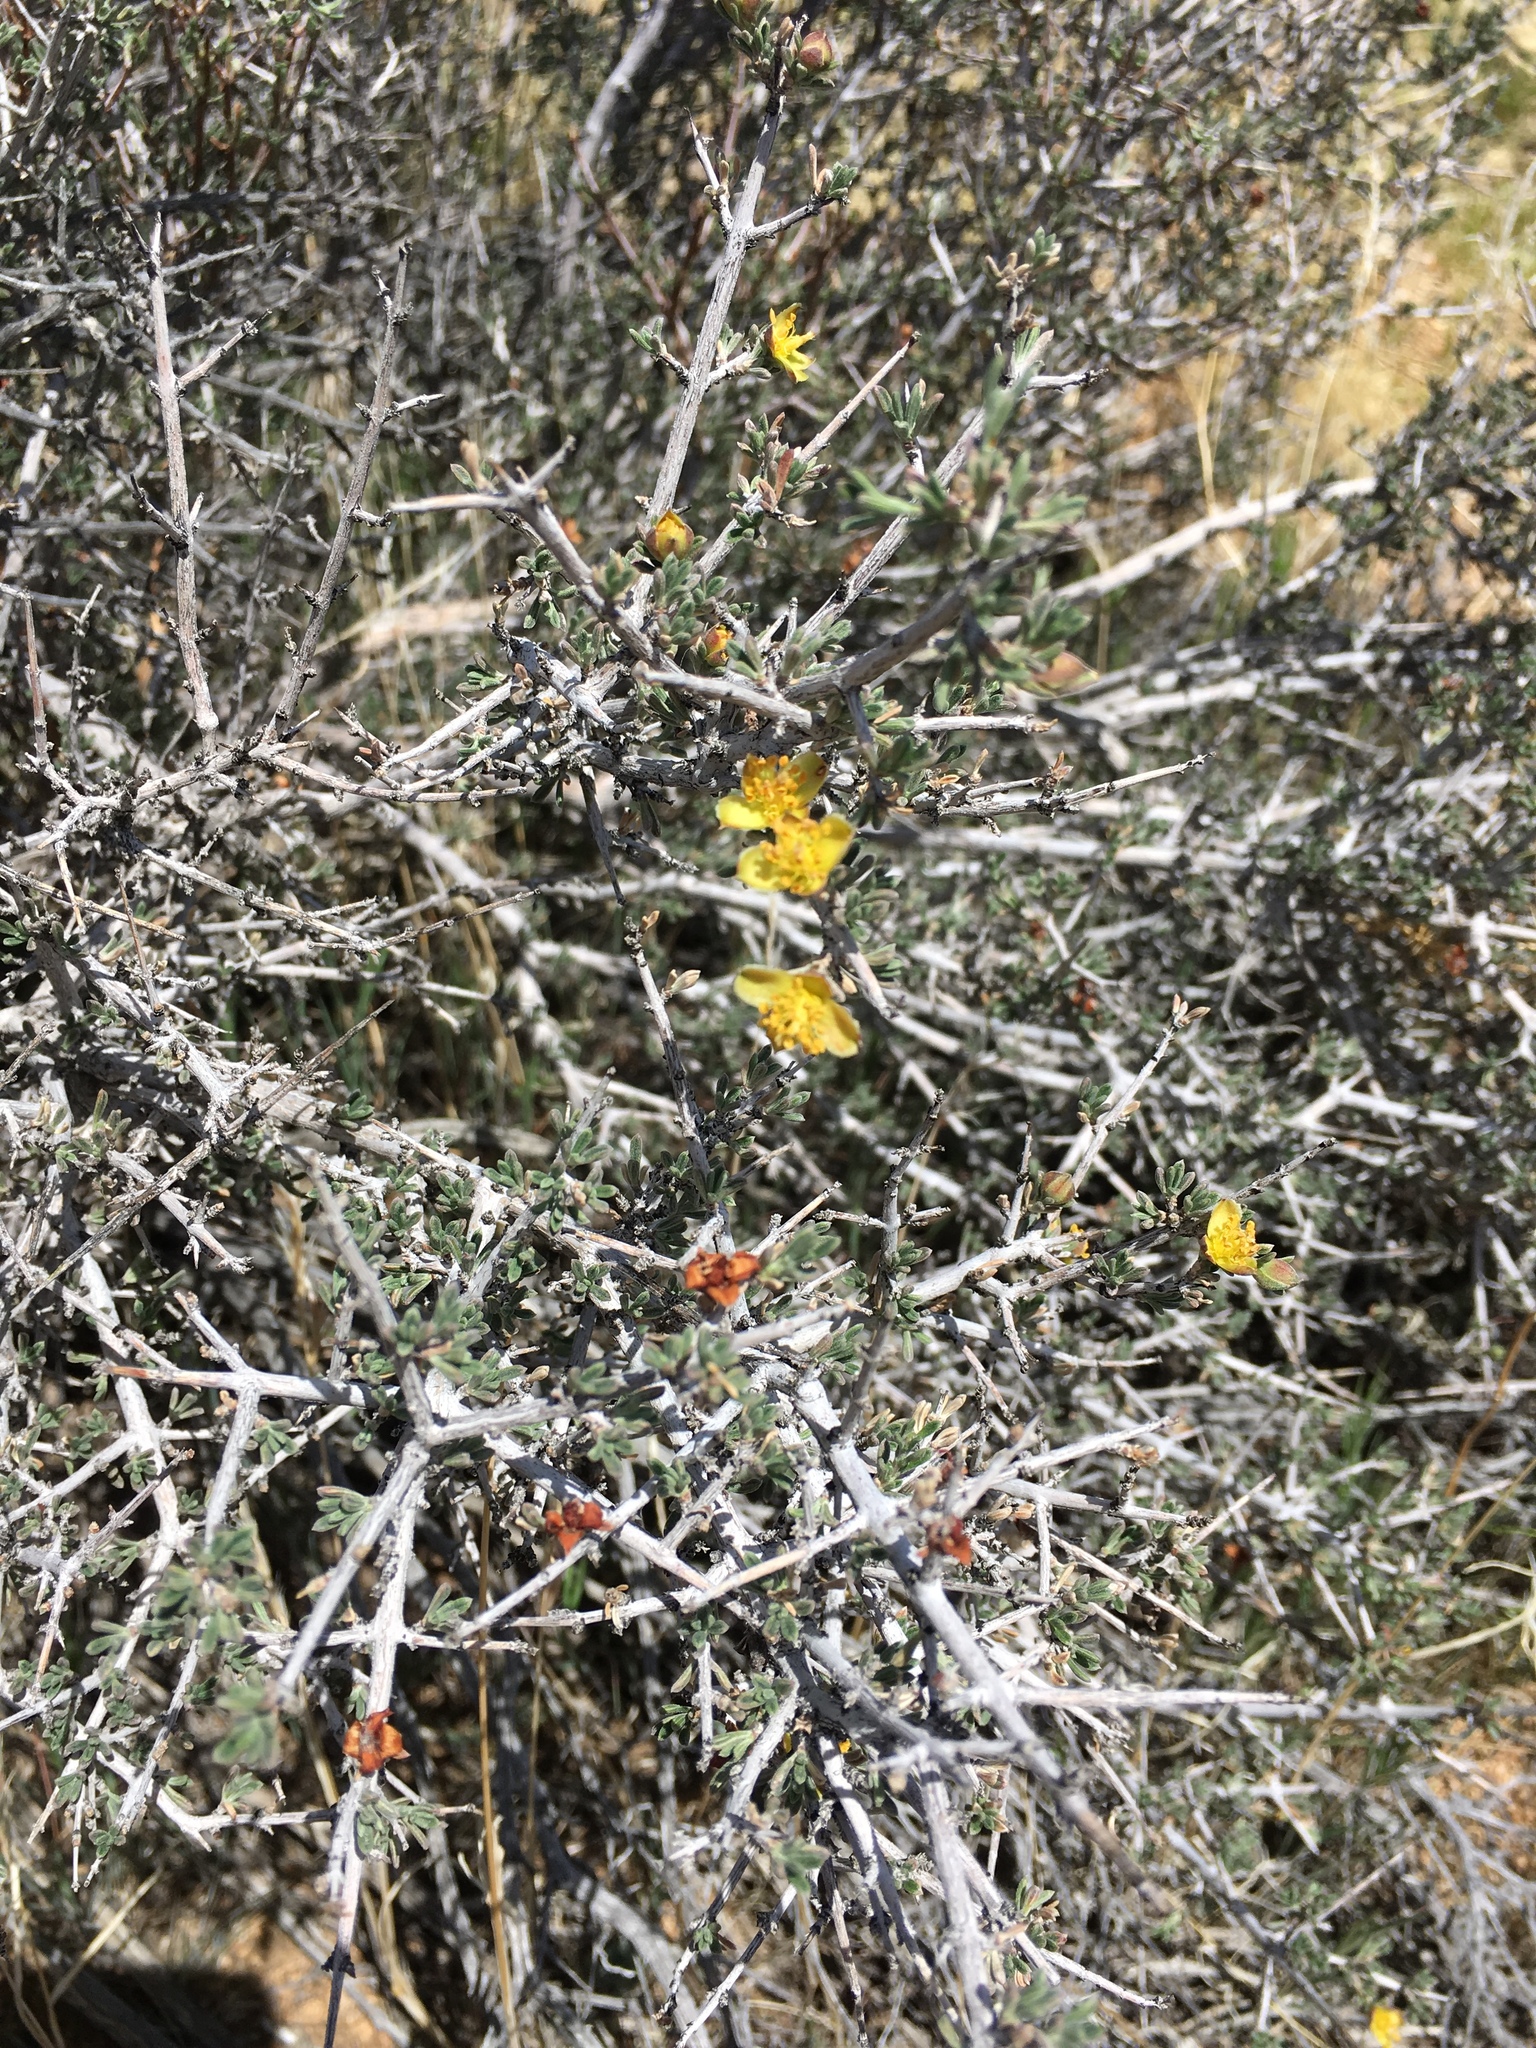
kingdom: Plantae
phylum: Tracheophyta
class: Magnoliopsida
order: Rosales
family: Rosaceae
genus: Coleogyne
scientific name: Coleogyne ramosissima
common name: Blackbrush
